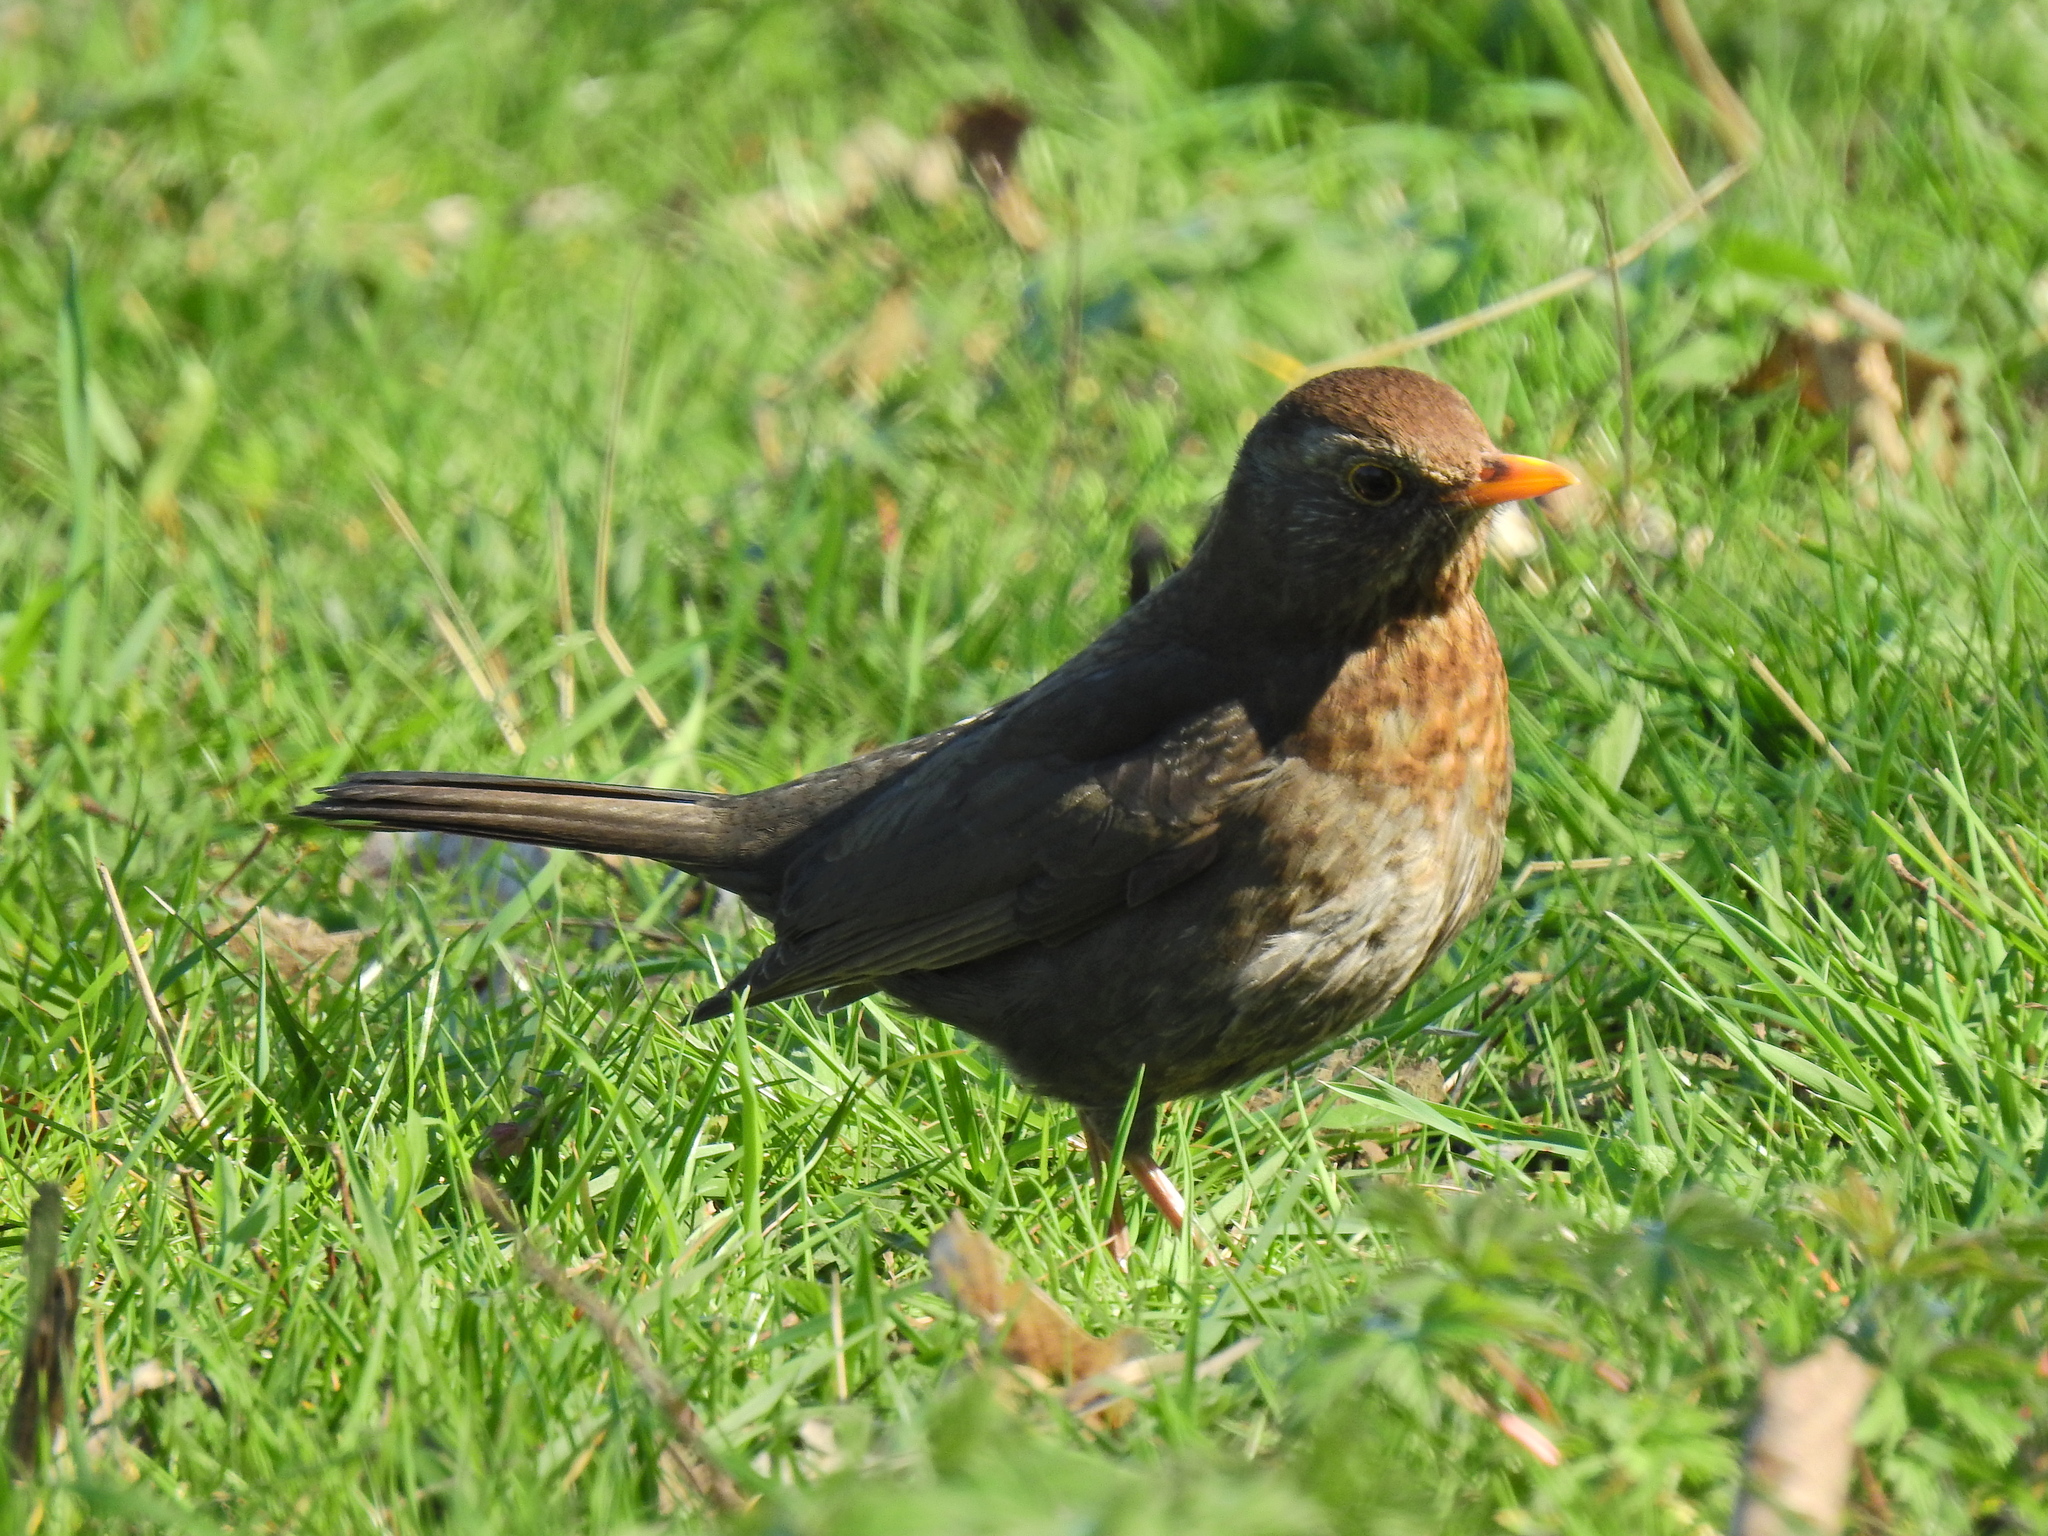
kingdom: Animalia
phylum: Chordata
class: Aves
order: Passeriformes
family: Turdidae
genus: Turdus
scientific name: Turdus merula
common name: Common blackbird
